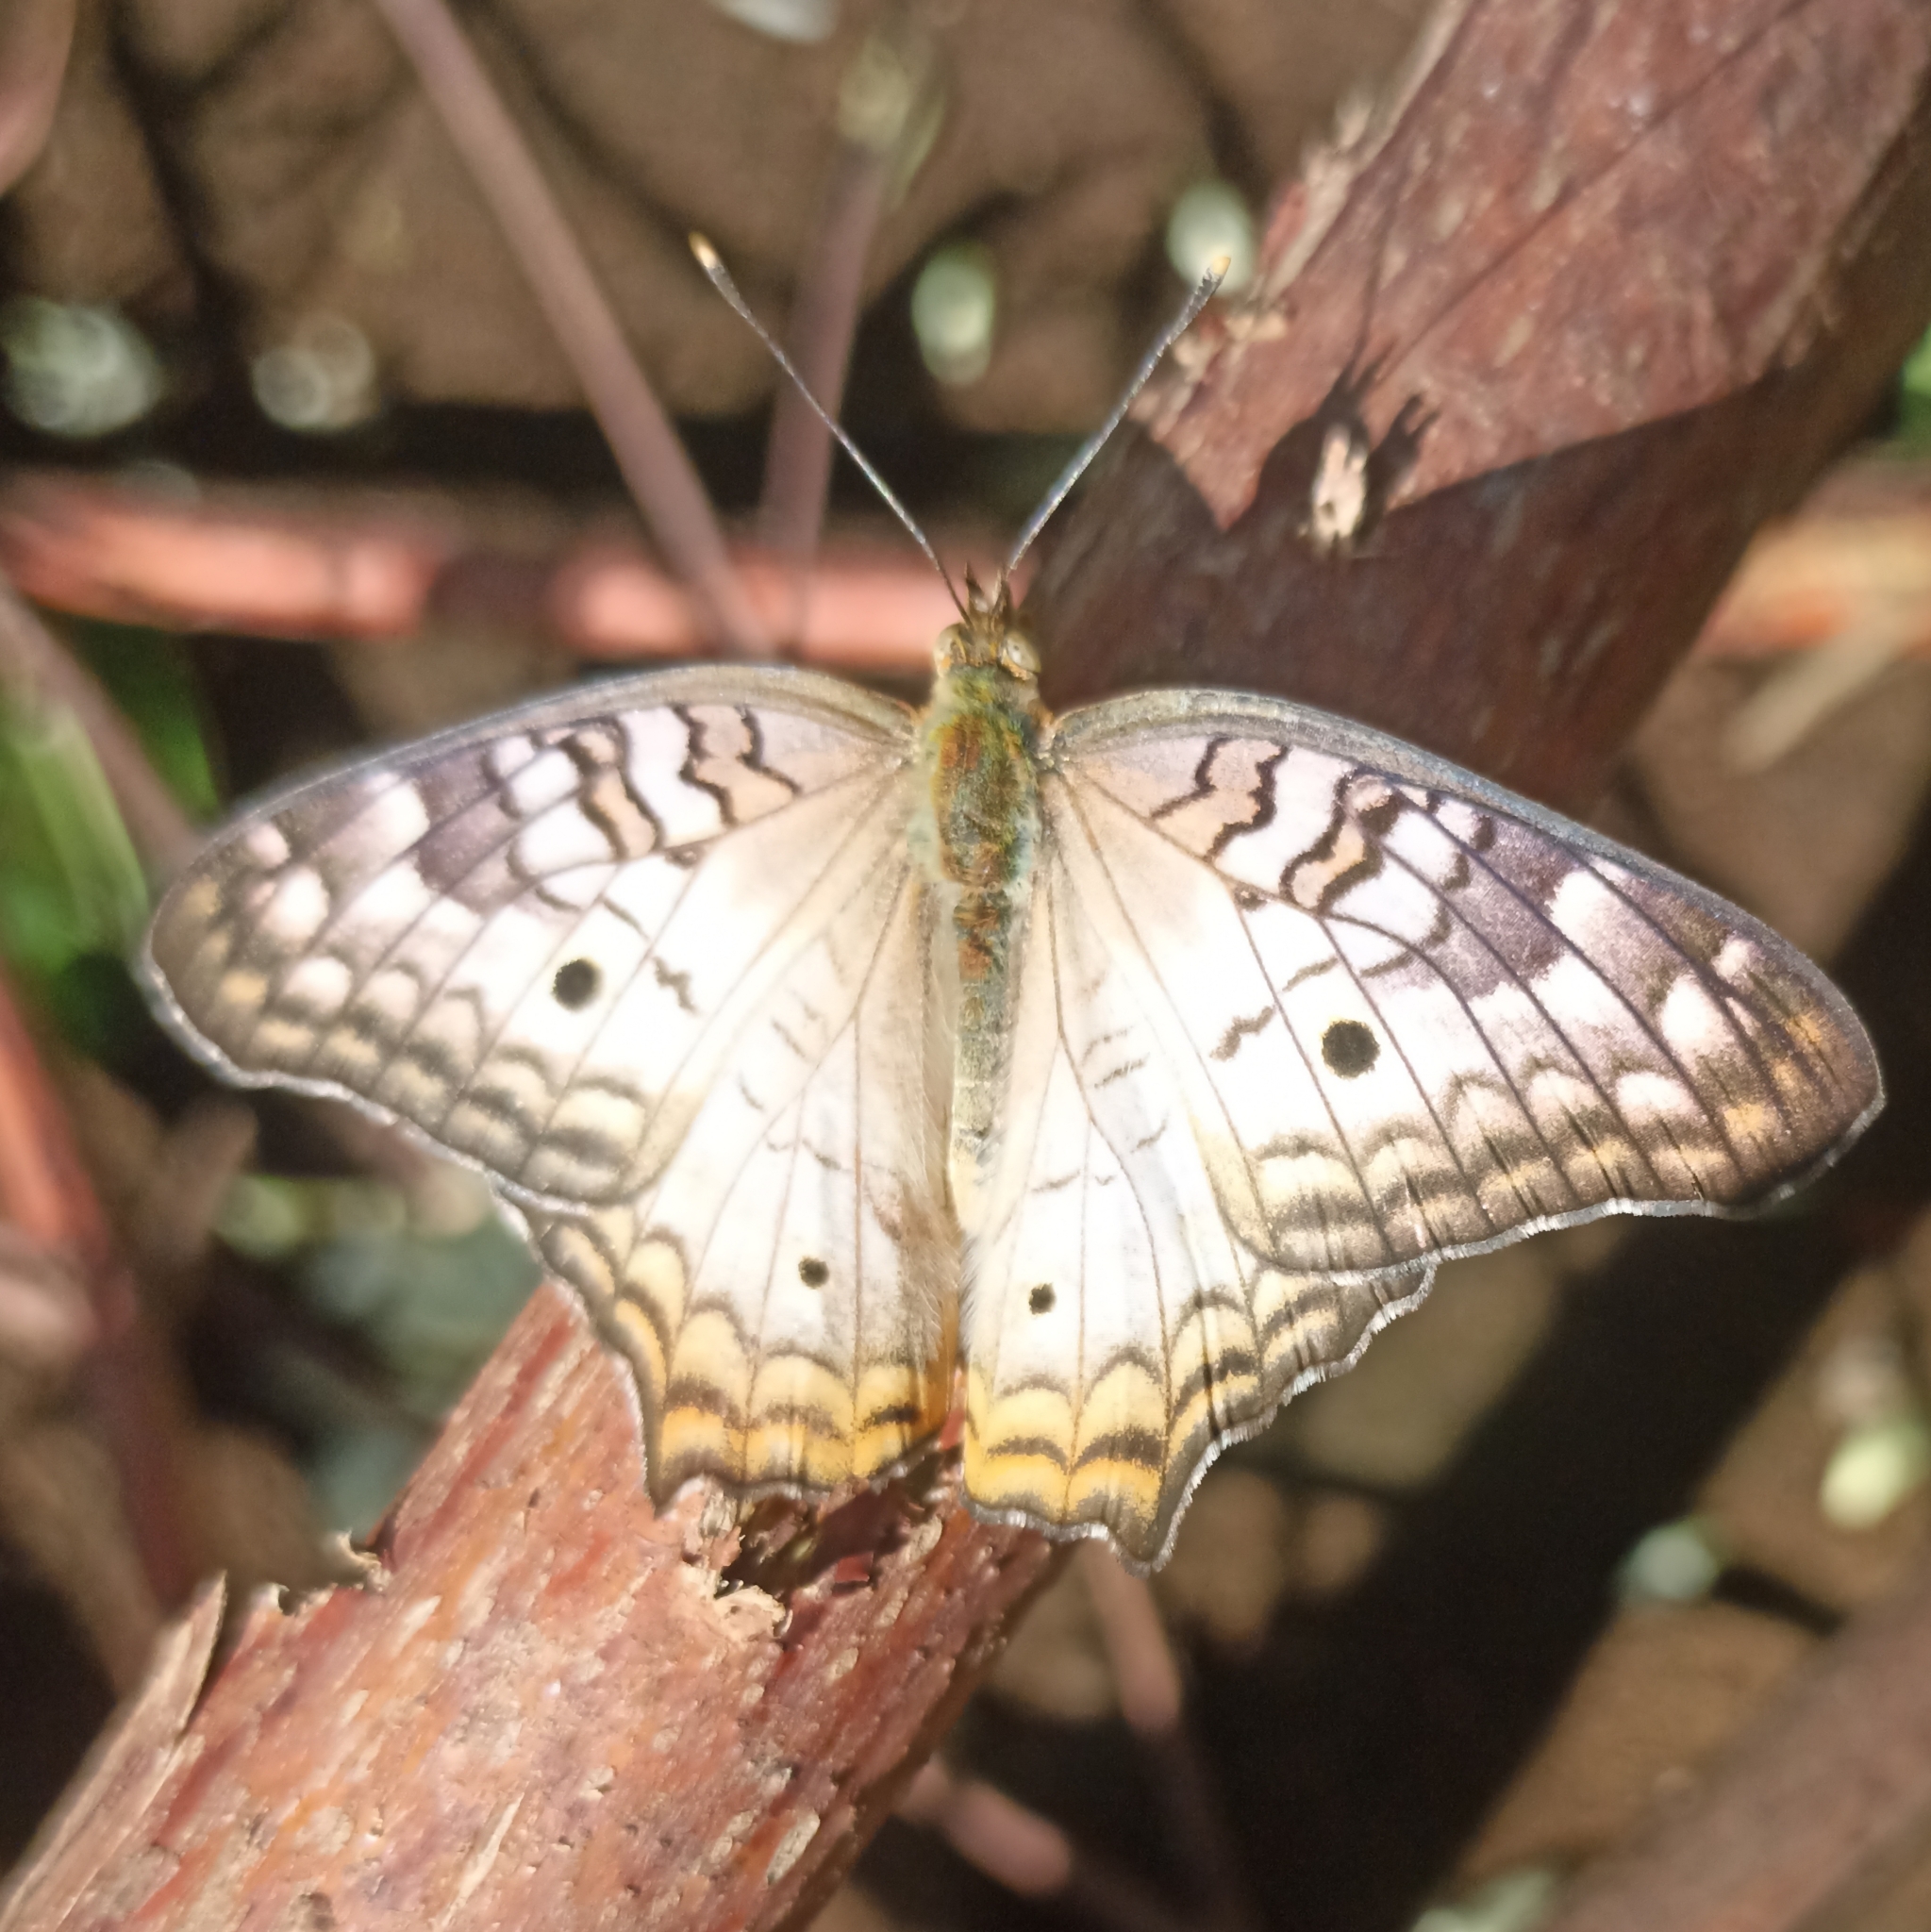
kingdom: Animalia
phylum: Arthropoda
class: Insecta
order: Lepidoptera
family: Nymphalidae
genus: Anartia
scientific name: Anartia jatrophae
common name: White peacock
